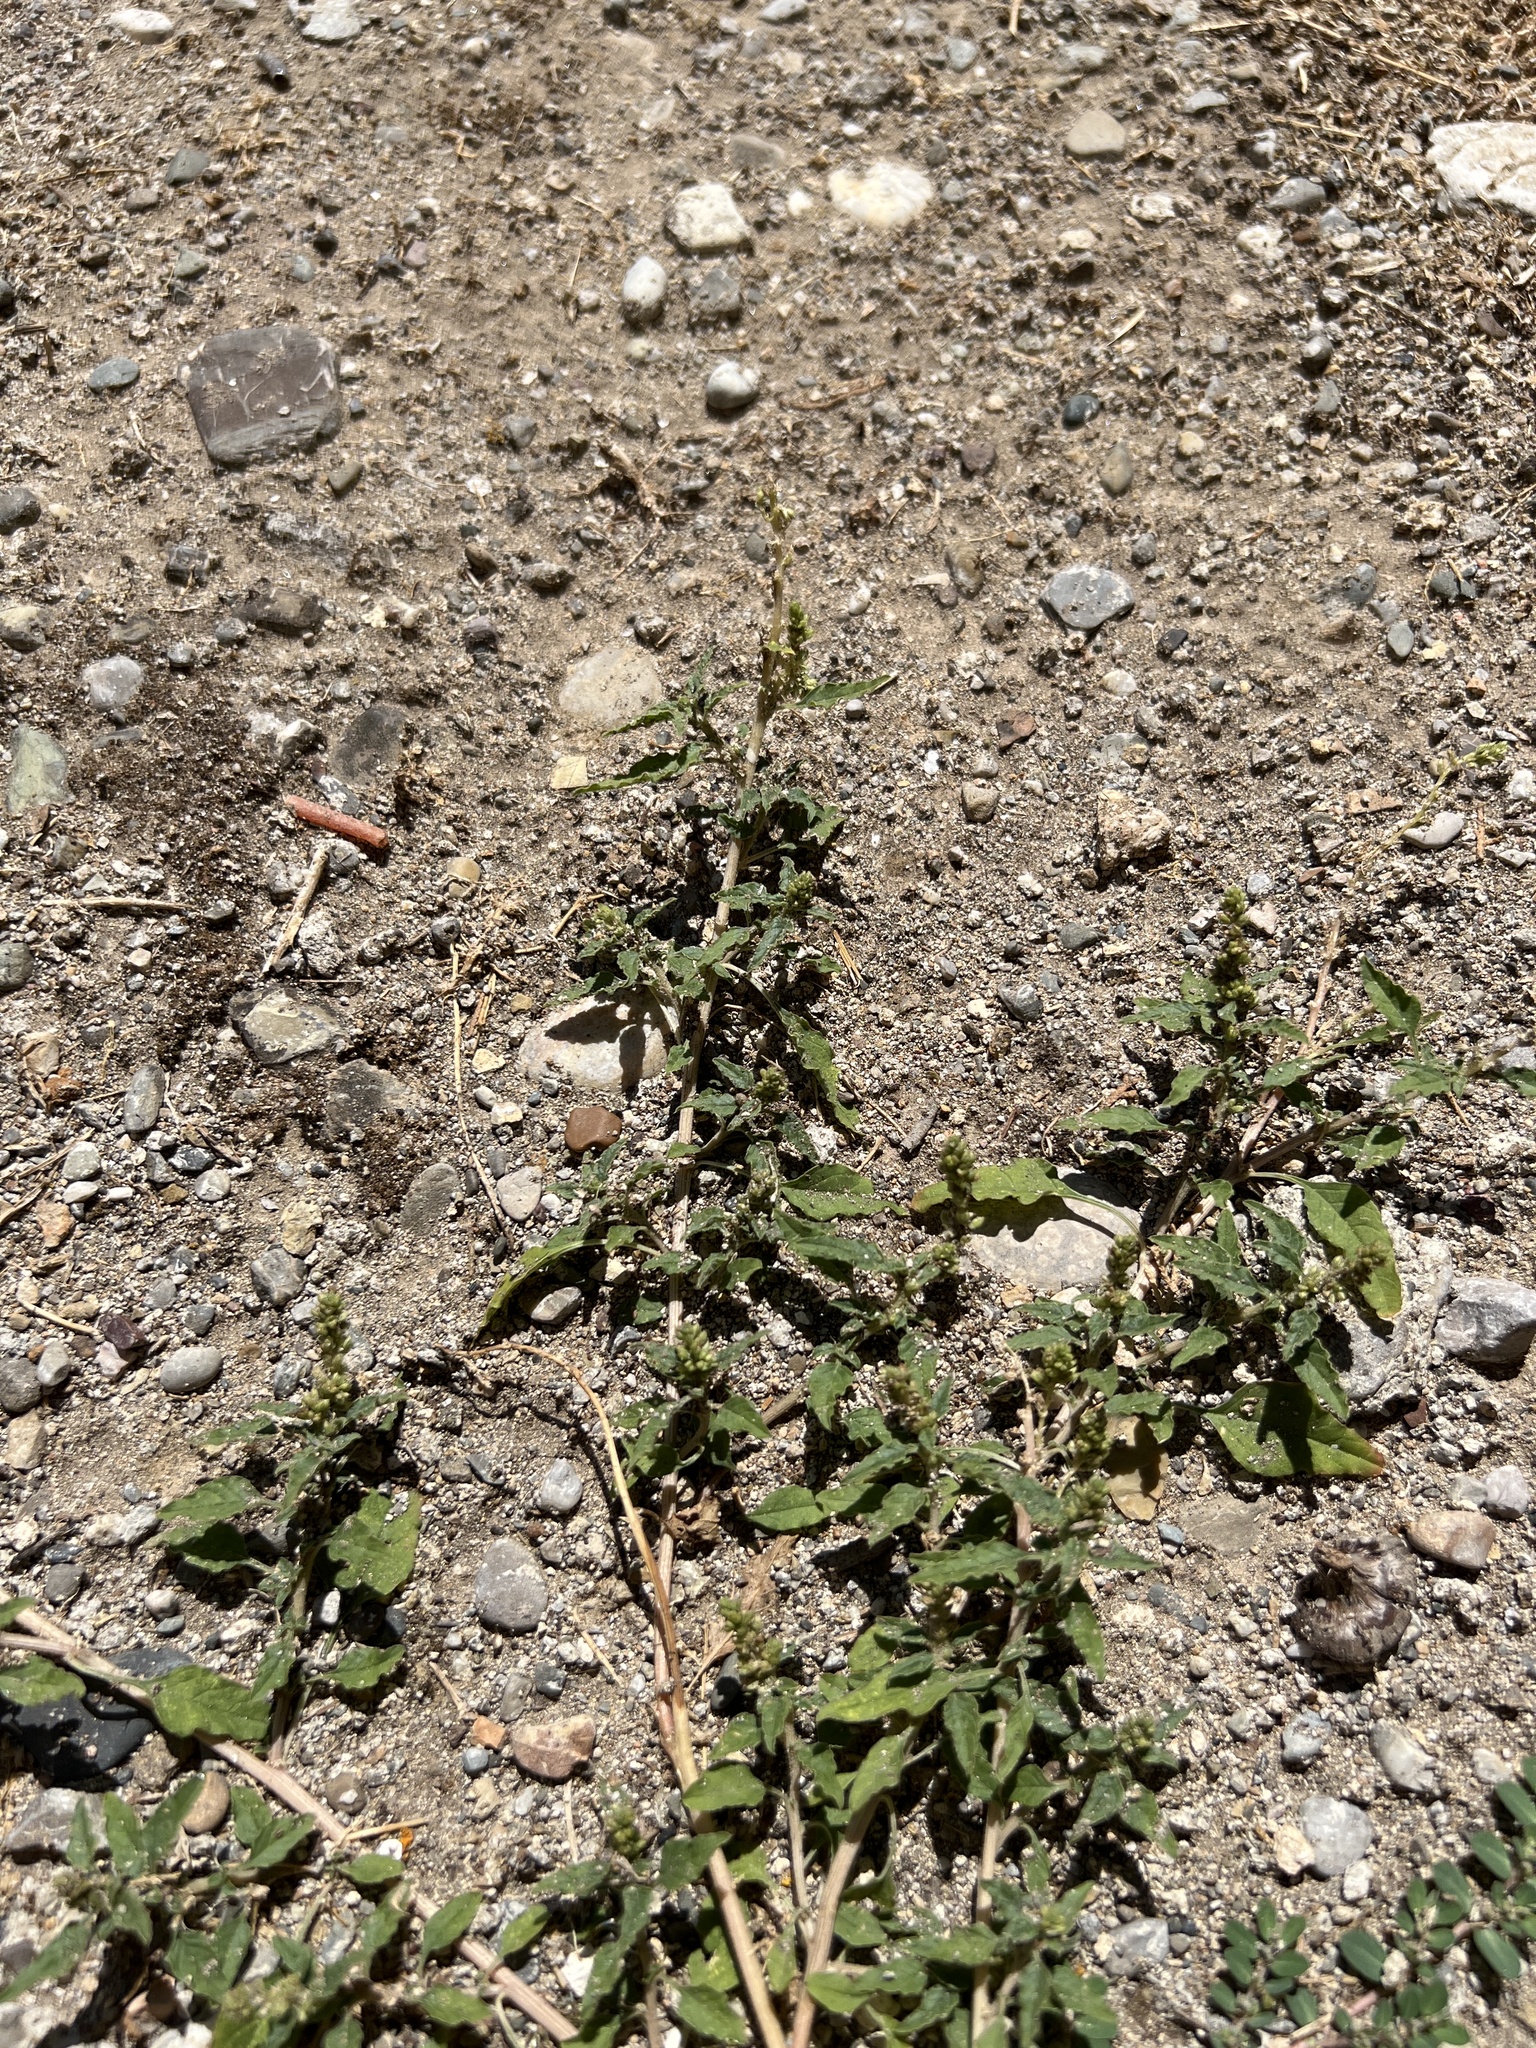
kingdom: Plantae
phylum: Tracheophyta
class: Magnoliopsida
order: Caryophyllales
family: Amaranthaceae
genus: Amaranthus
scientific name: Amaranthus deflexus
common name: Perennial pigweed
